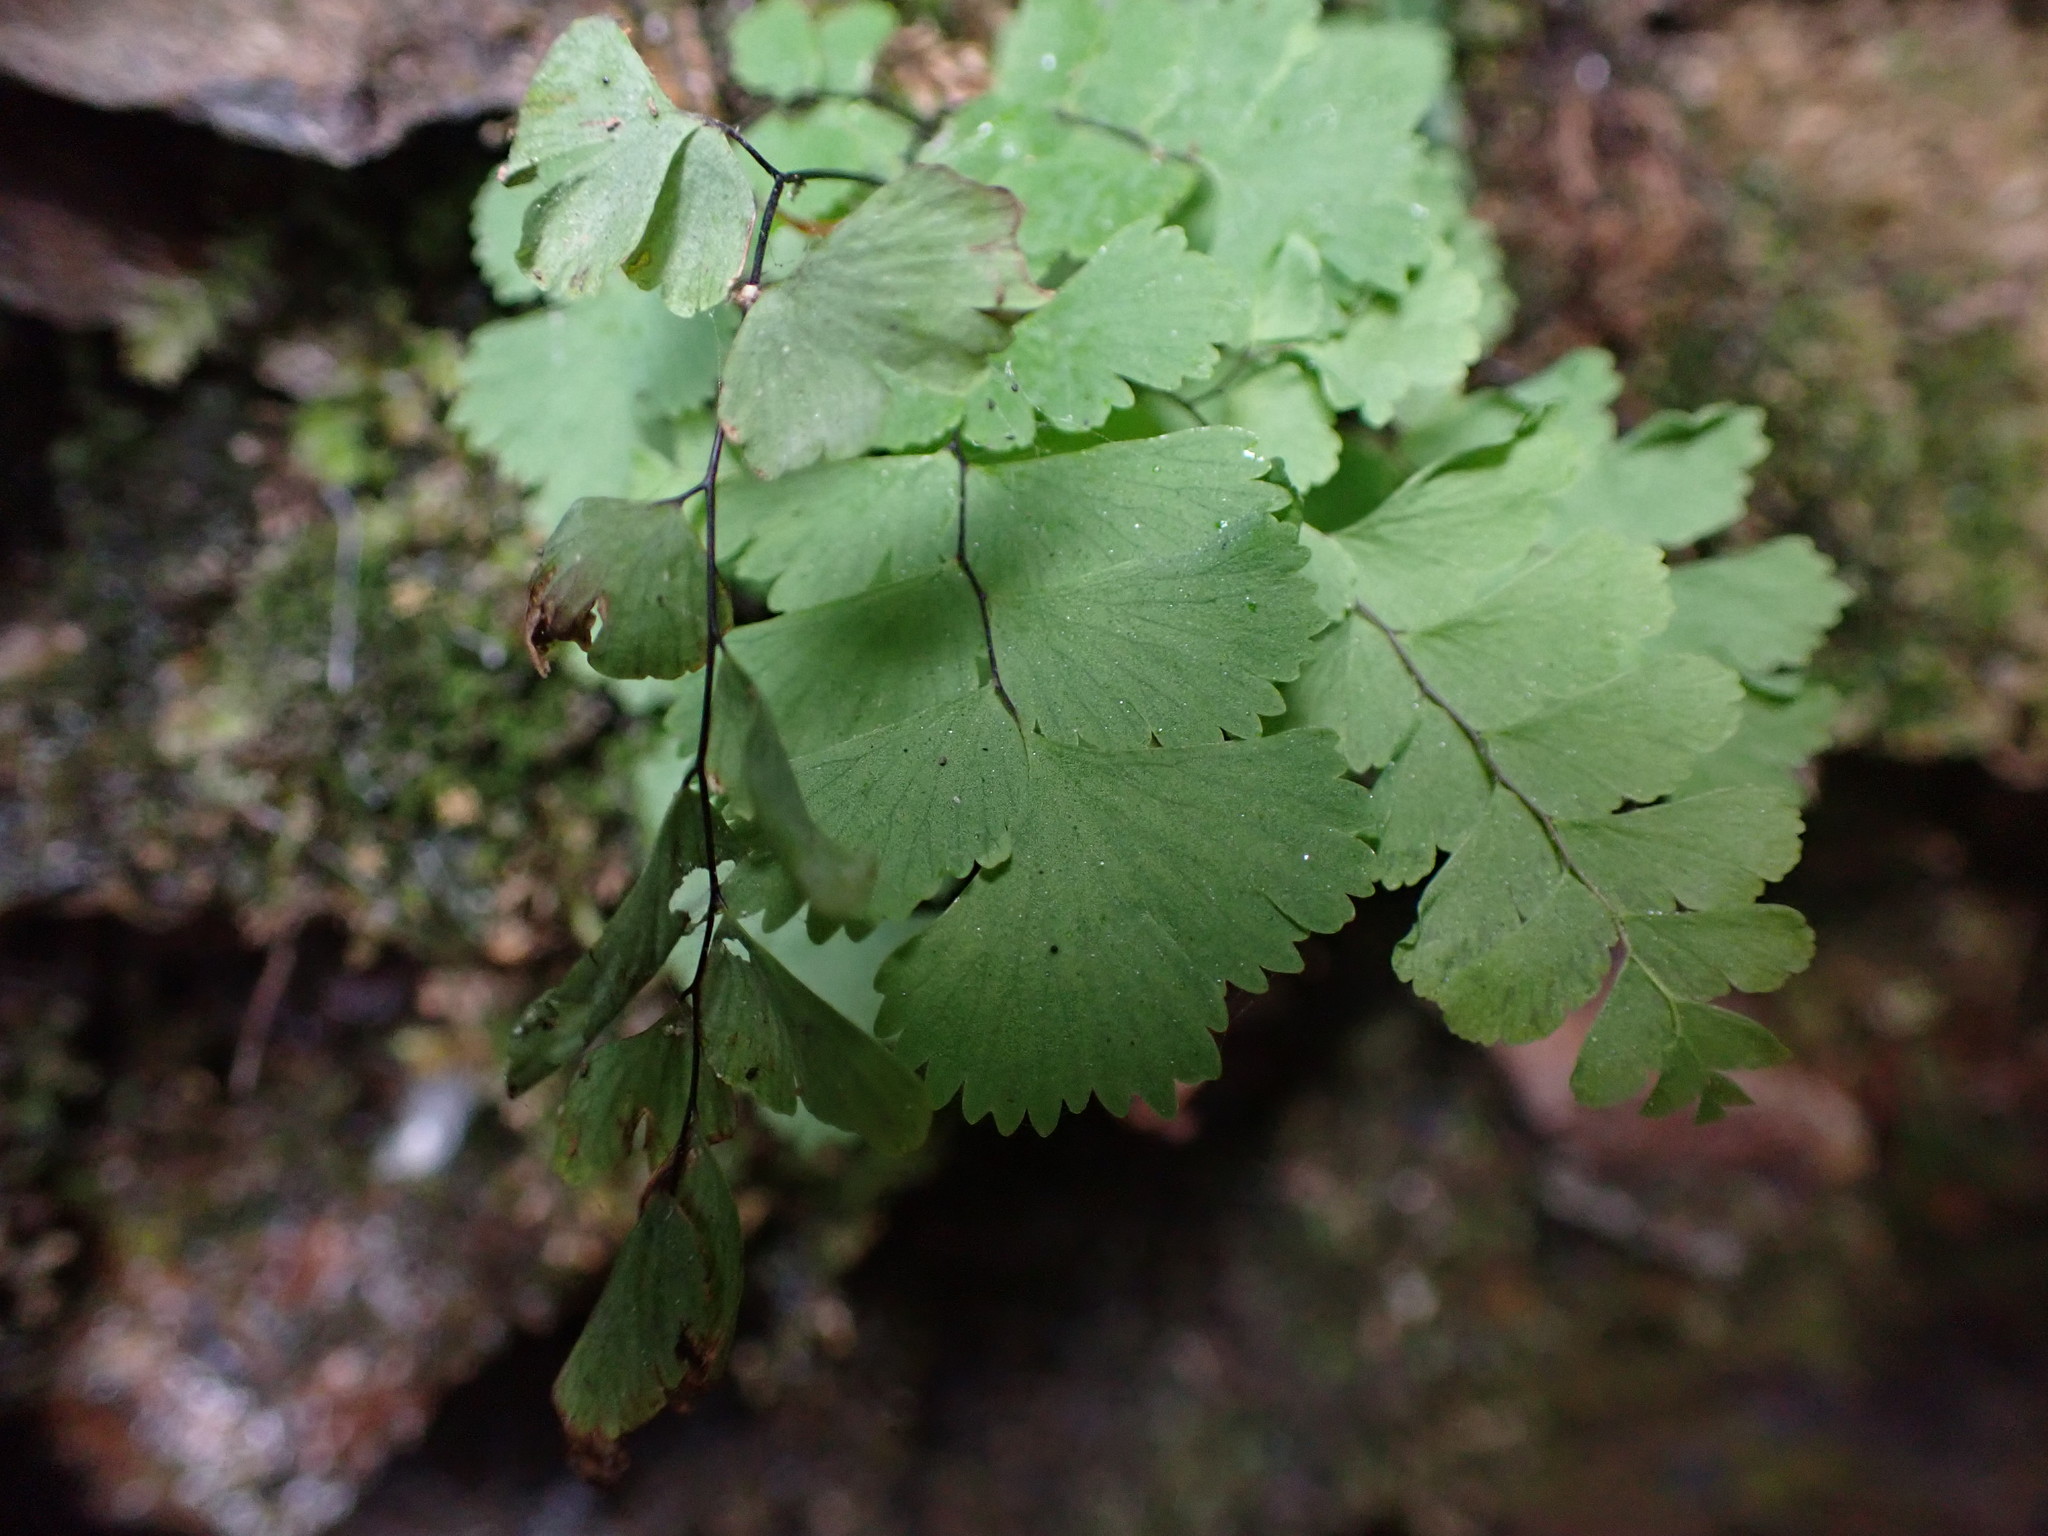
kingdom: Plantae
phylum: Tracheophyta
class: Polypodiopsida
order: Polypodiales
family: Pteridaceae
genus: Adiantum
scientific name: Adiantum aleuticum
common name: Aleutian maidenhair fern
